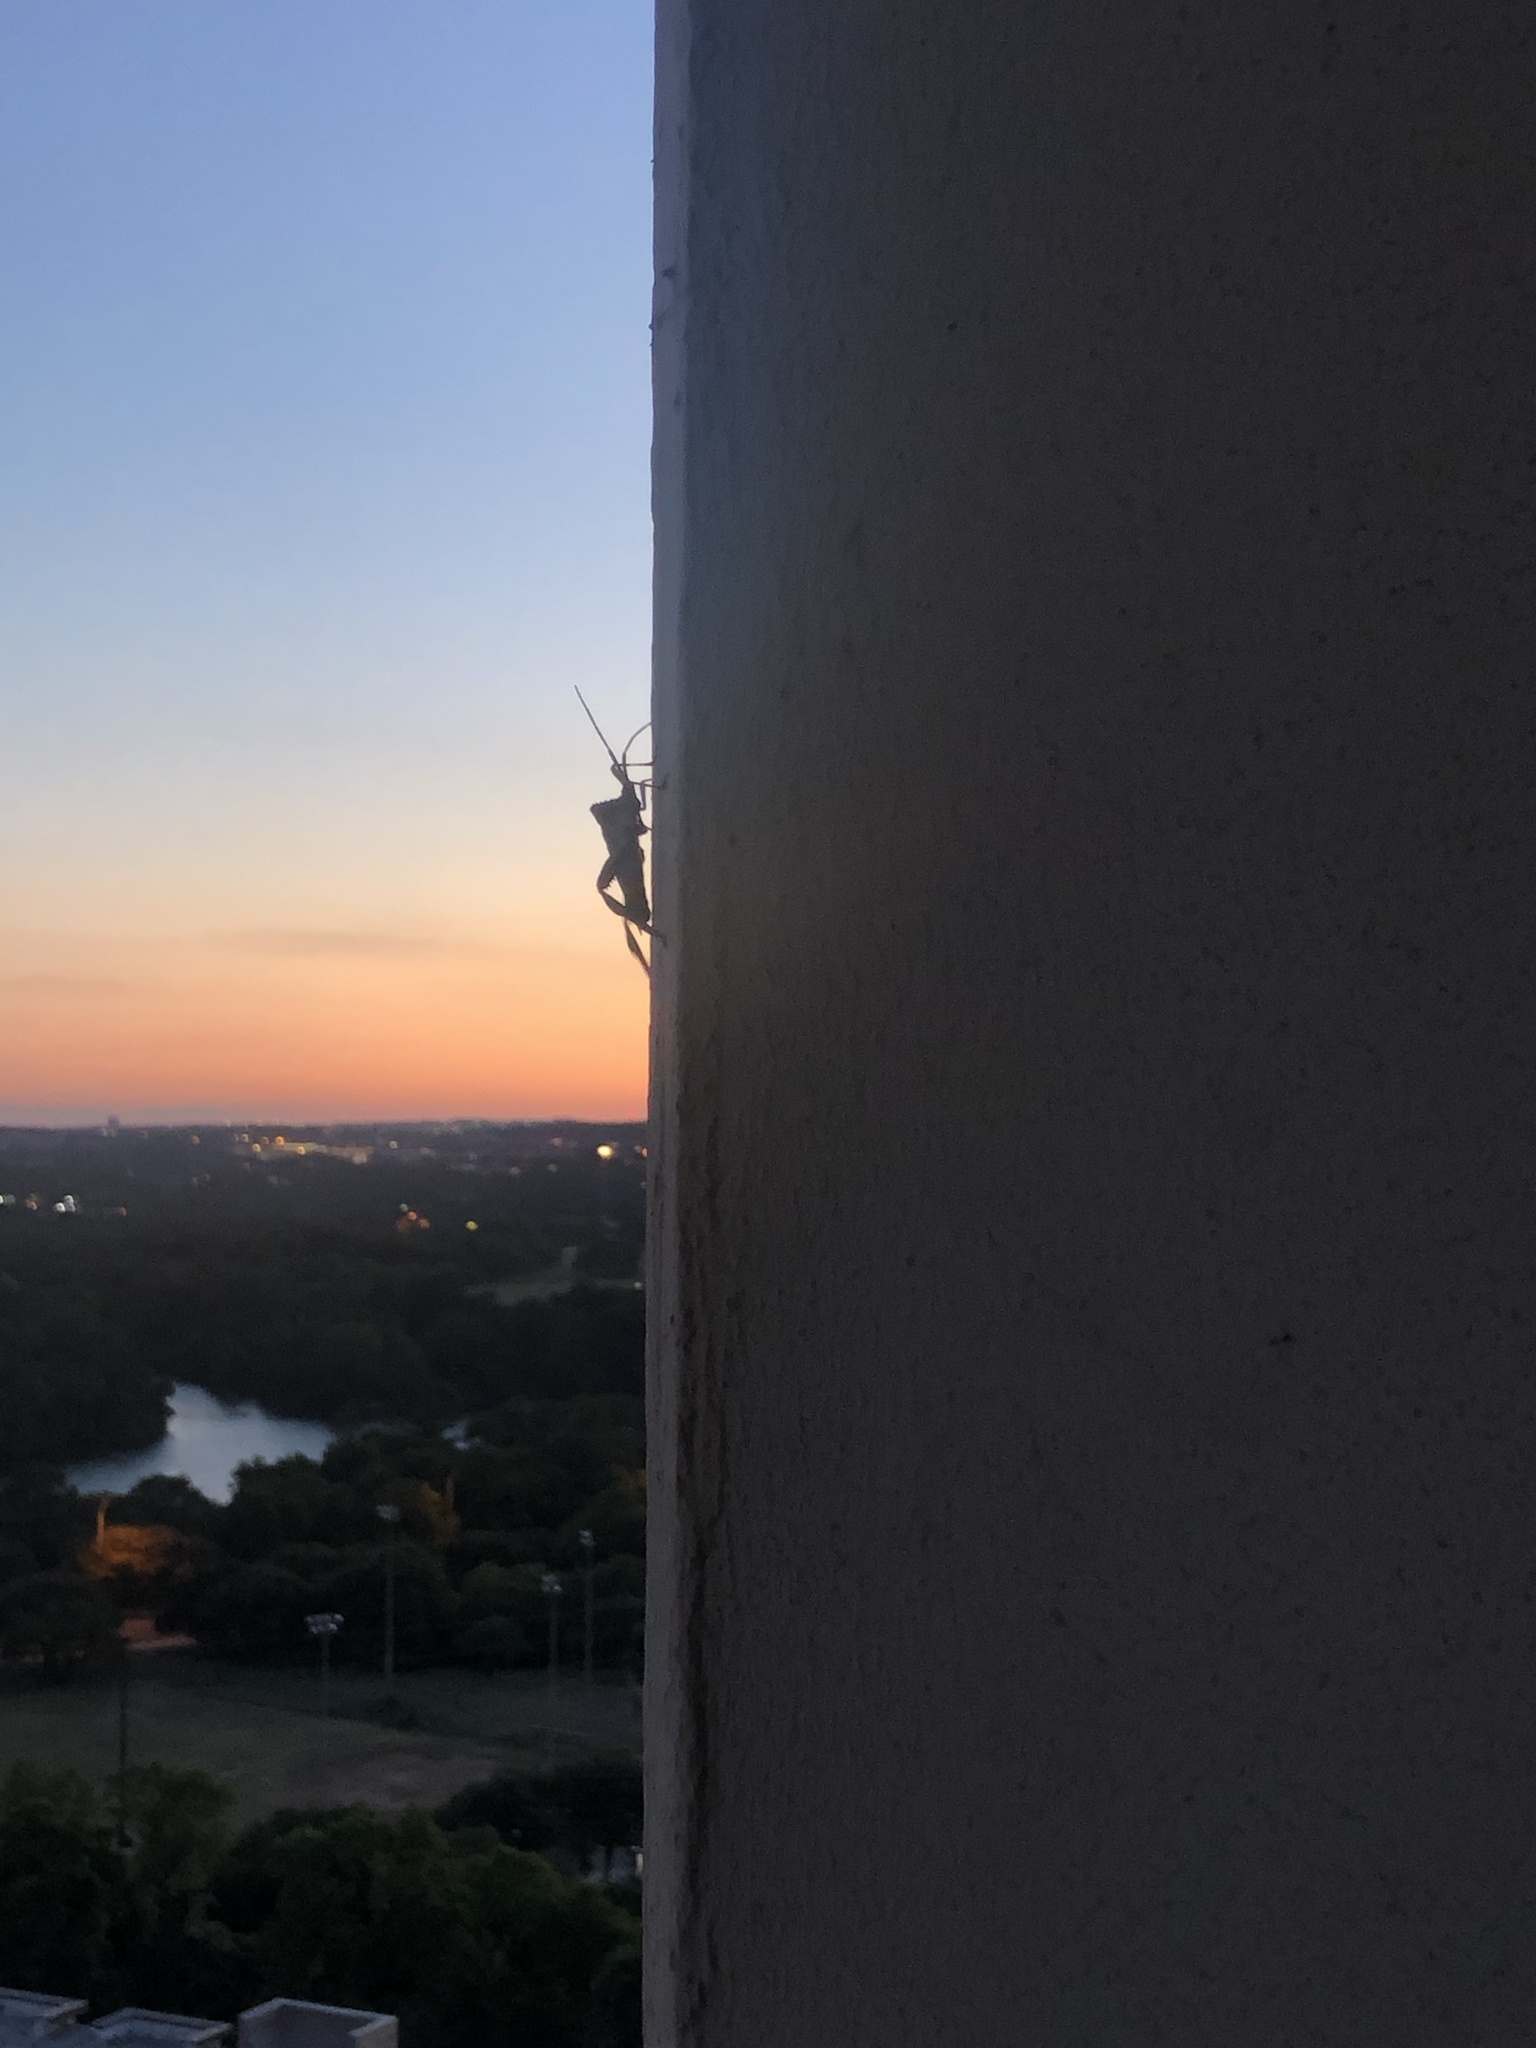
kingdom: Animalia
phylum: Arthropoda
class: Insecta
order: Hemiptera
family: Coreidae
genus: Acanthocephala
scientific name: Acanthocephala declivis
